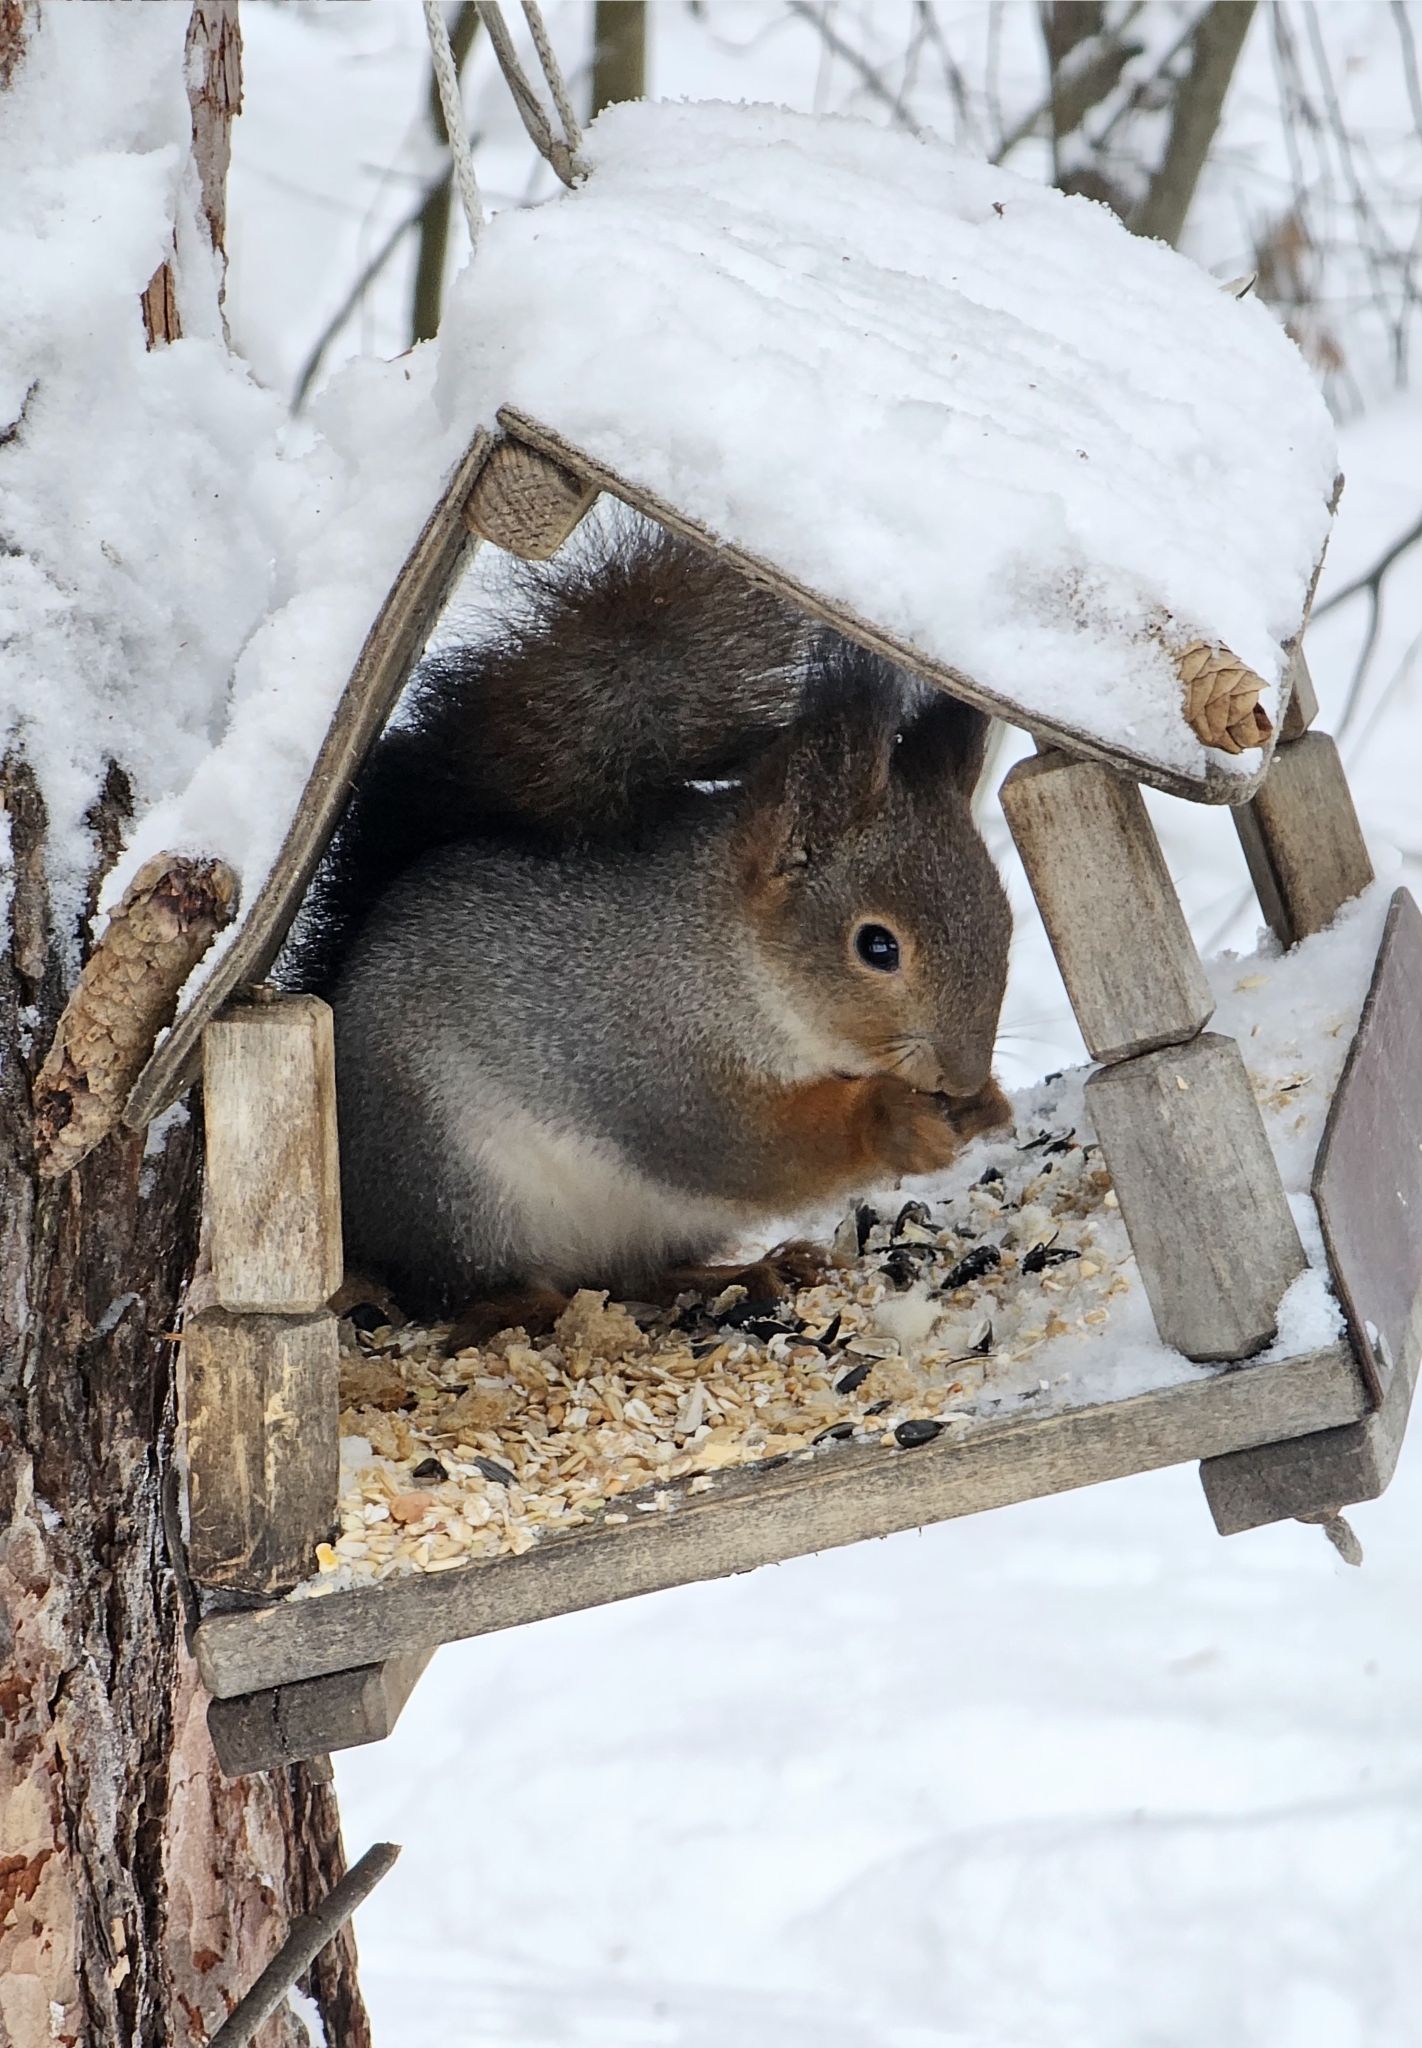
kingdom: Animalia
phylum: Chordata
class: Mammalia
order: Rodentia
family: Sciuridae
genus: Sciurus
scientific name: Sciurus vulgaris
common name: Eurasian red squirrel
